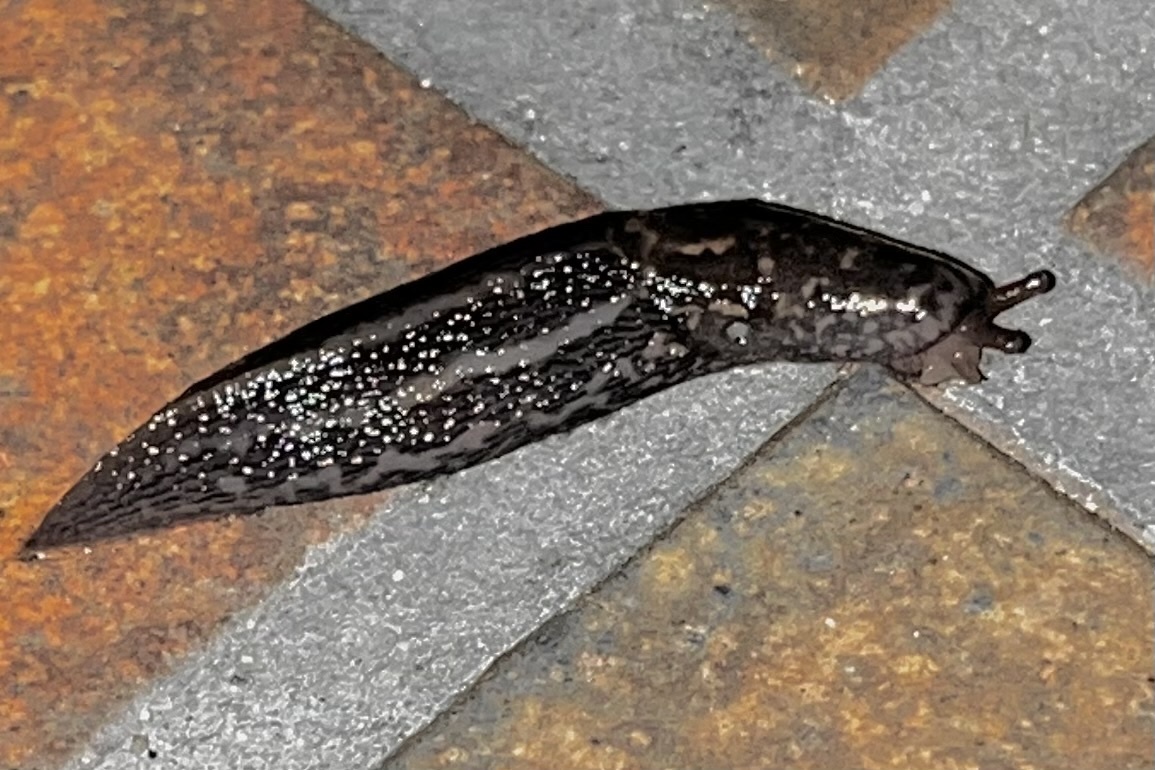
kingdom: Animalia
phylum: Mollusca
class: Gastropoda
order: Stylommatophora
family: Limacidae
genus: Limax
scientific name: Limax maximus
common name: Great grey slug
